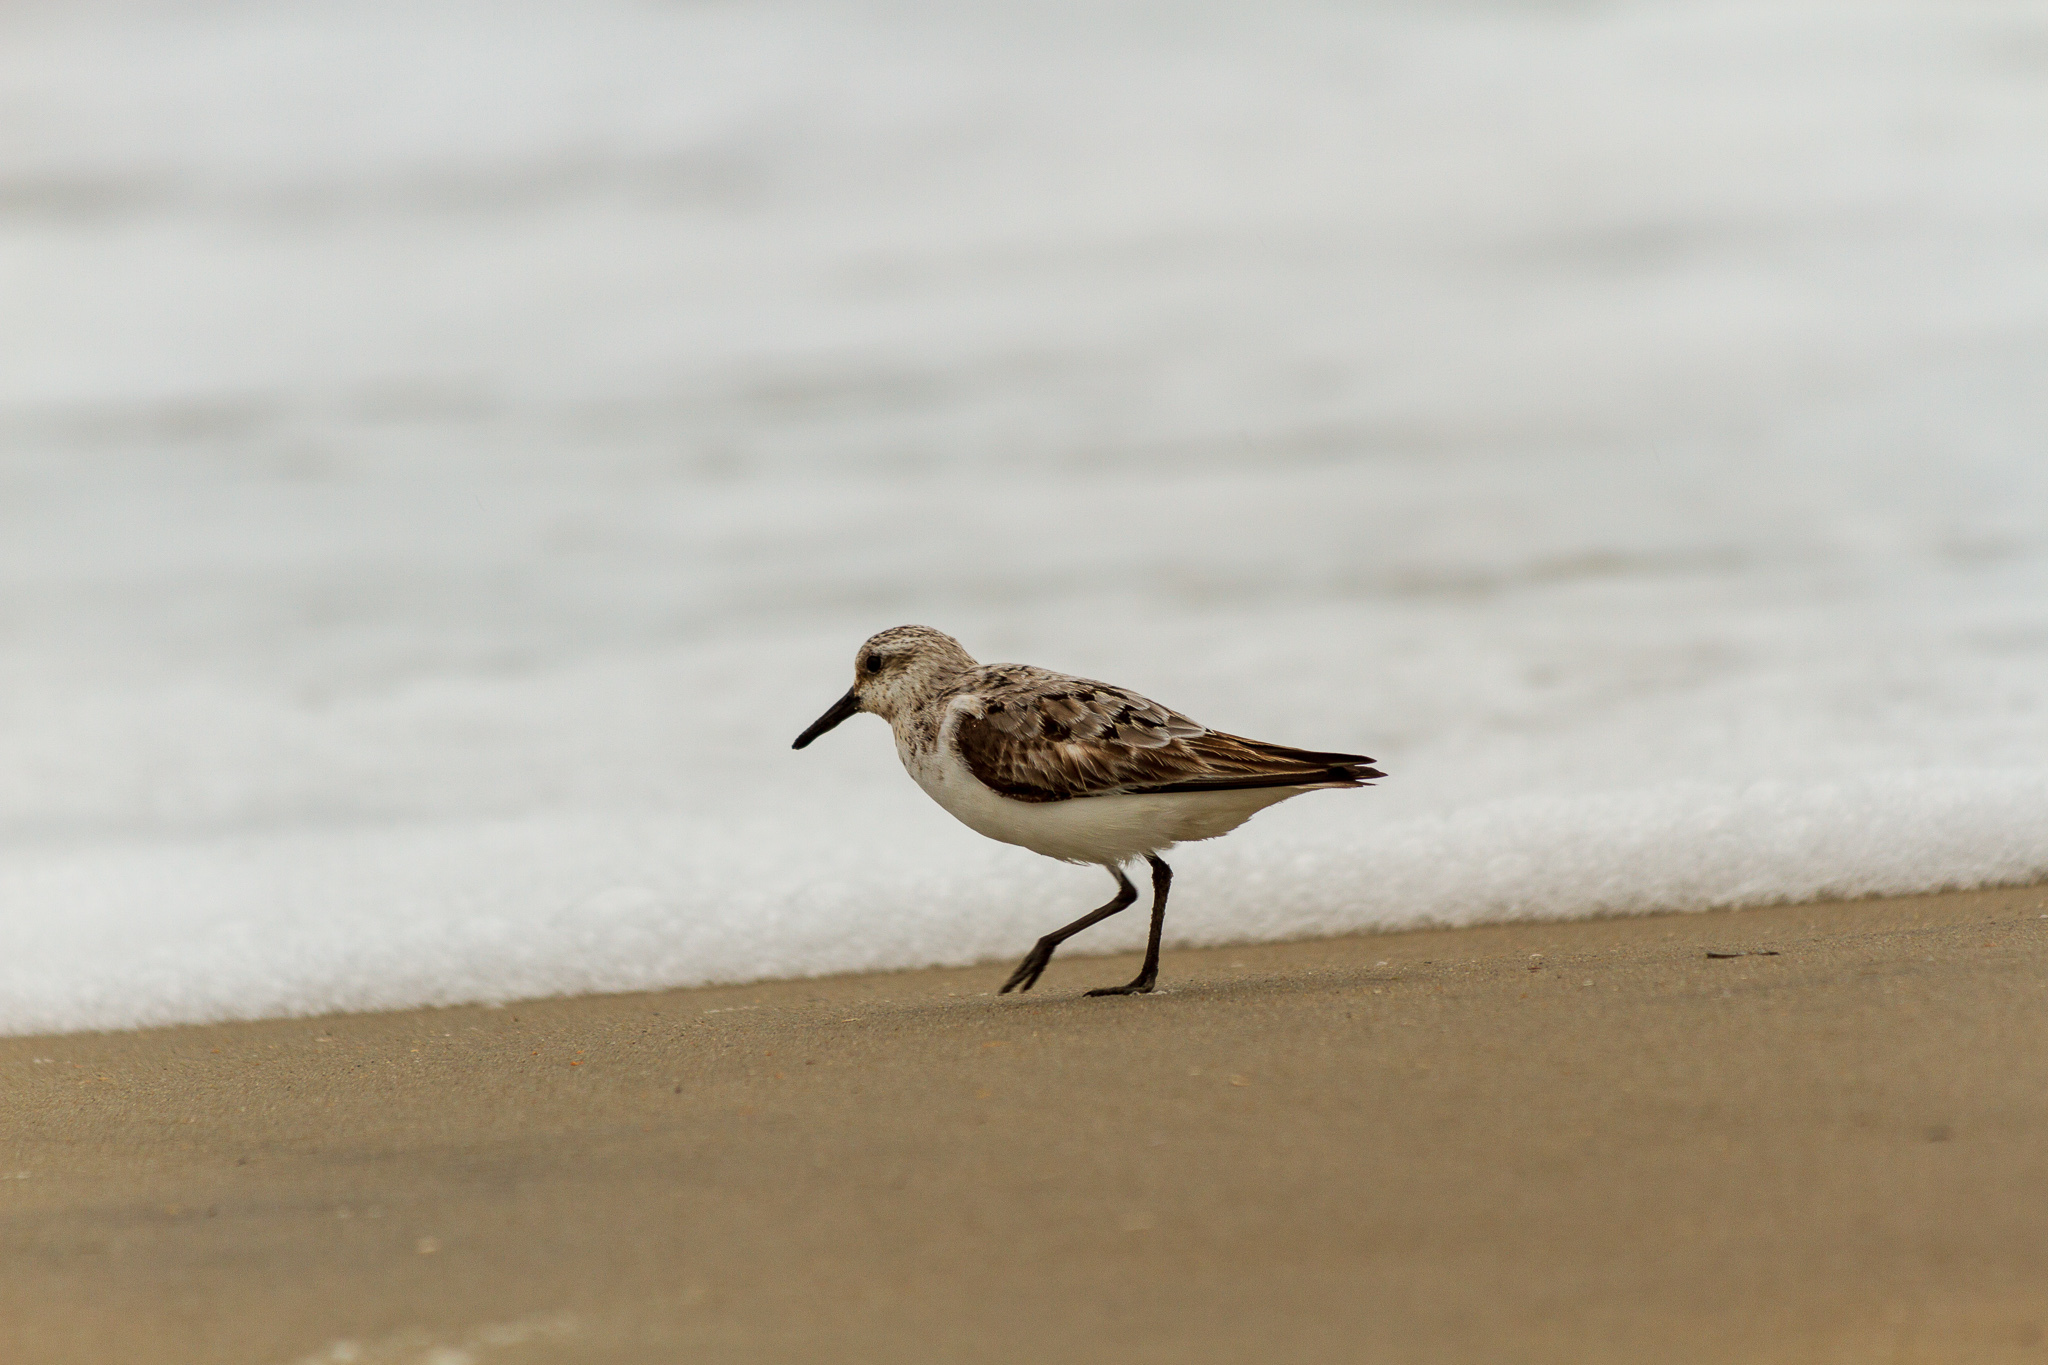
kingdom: Animalia
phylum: Chordata
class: Aves
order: Charadriiformes
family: Scolopacidae
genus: Calidris
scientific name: Calidris alba
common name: Sanderling
